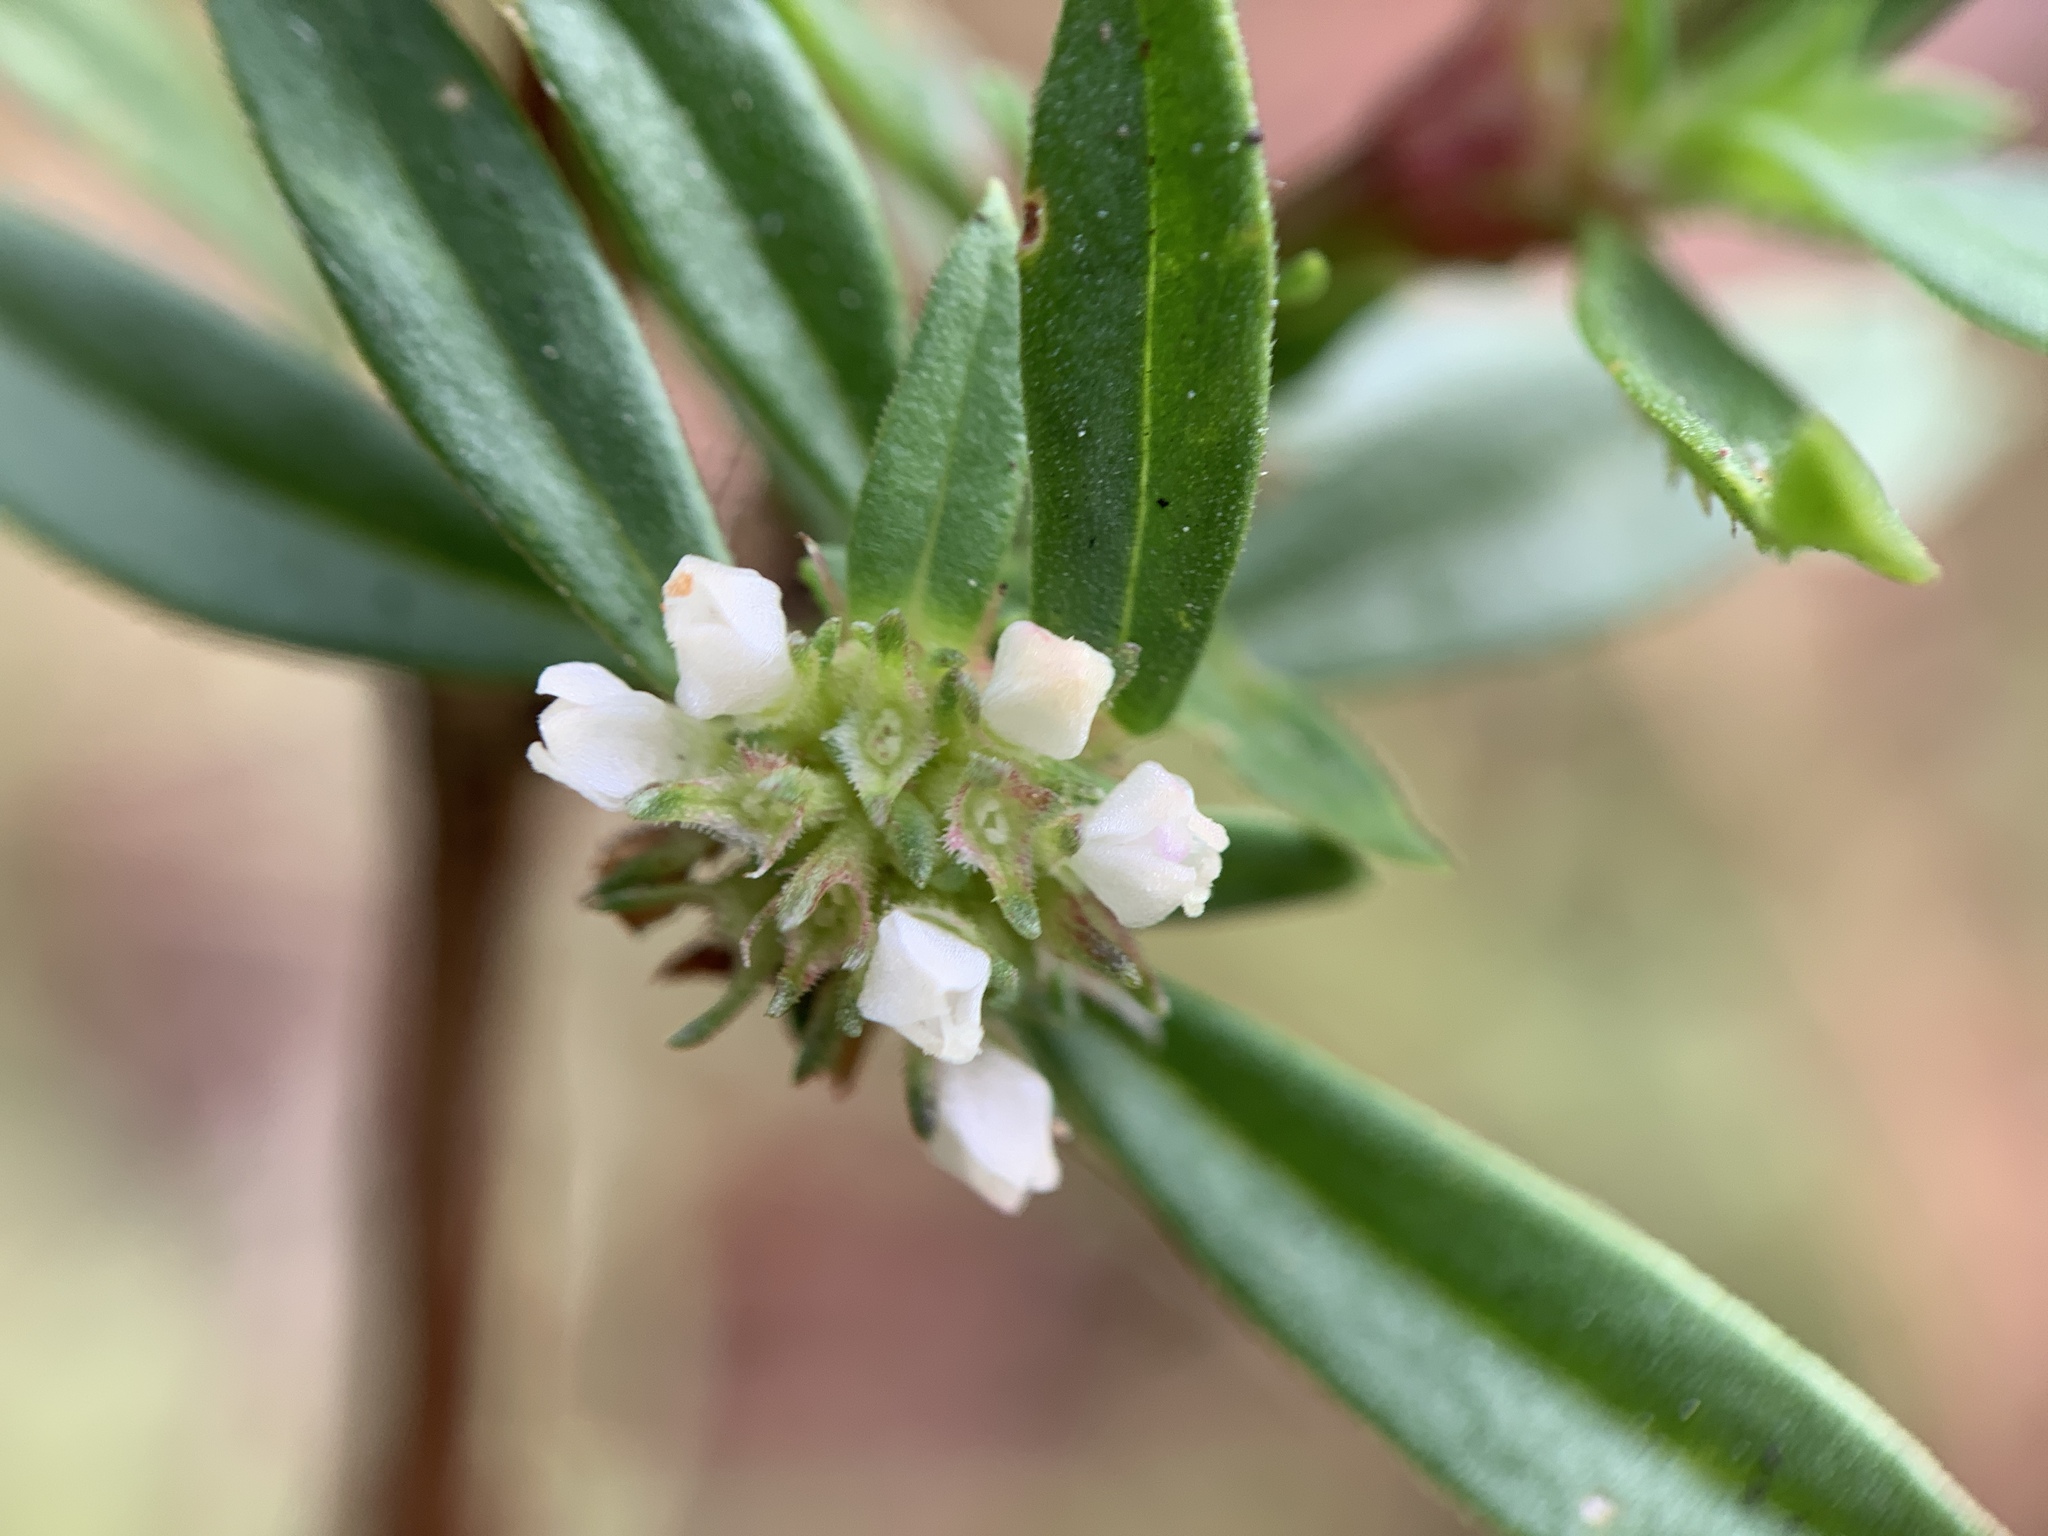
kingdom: Plantae
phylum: Tracheophyta
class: Magnoliopsida
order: Gentianales
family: Rubiaceae
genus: Spermacoce
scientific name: Spermacoce remota
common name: Woodland false buttonweed
